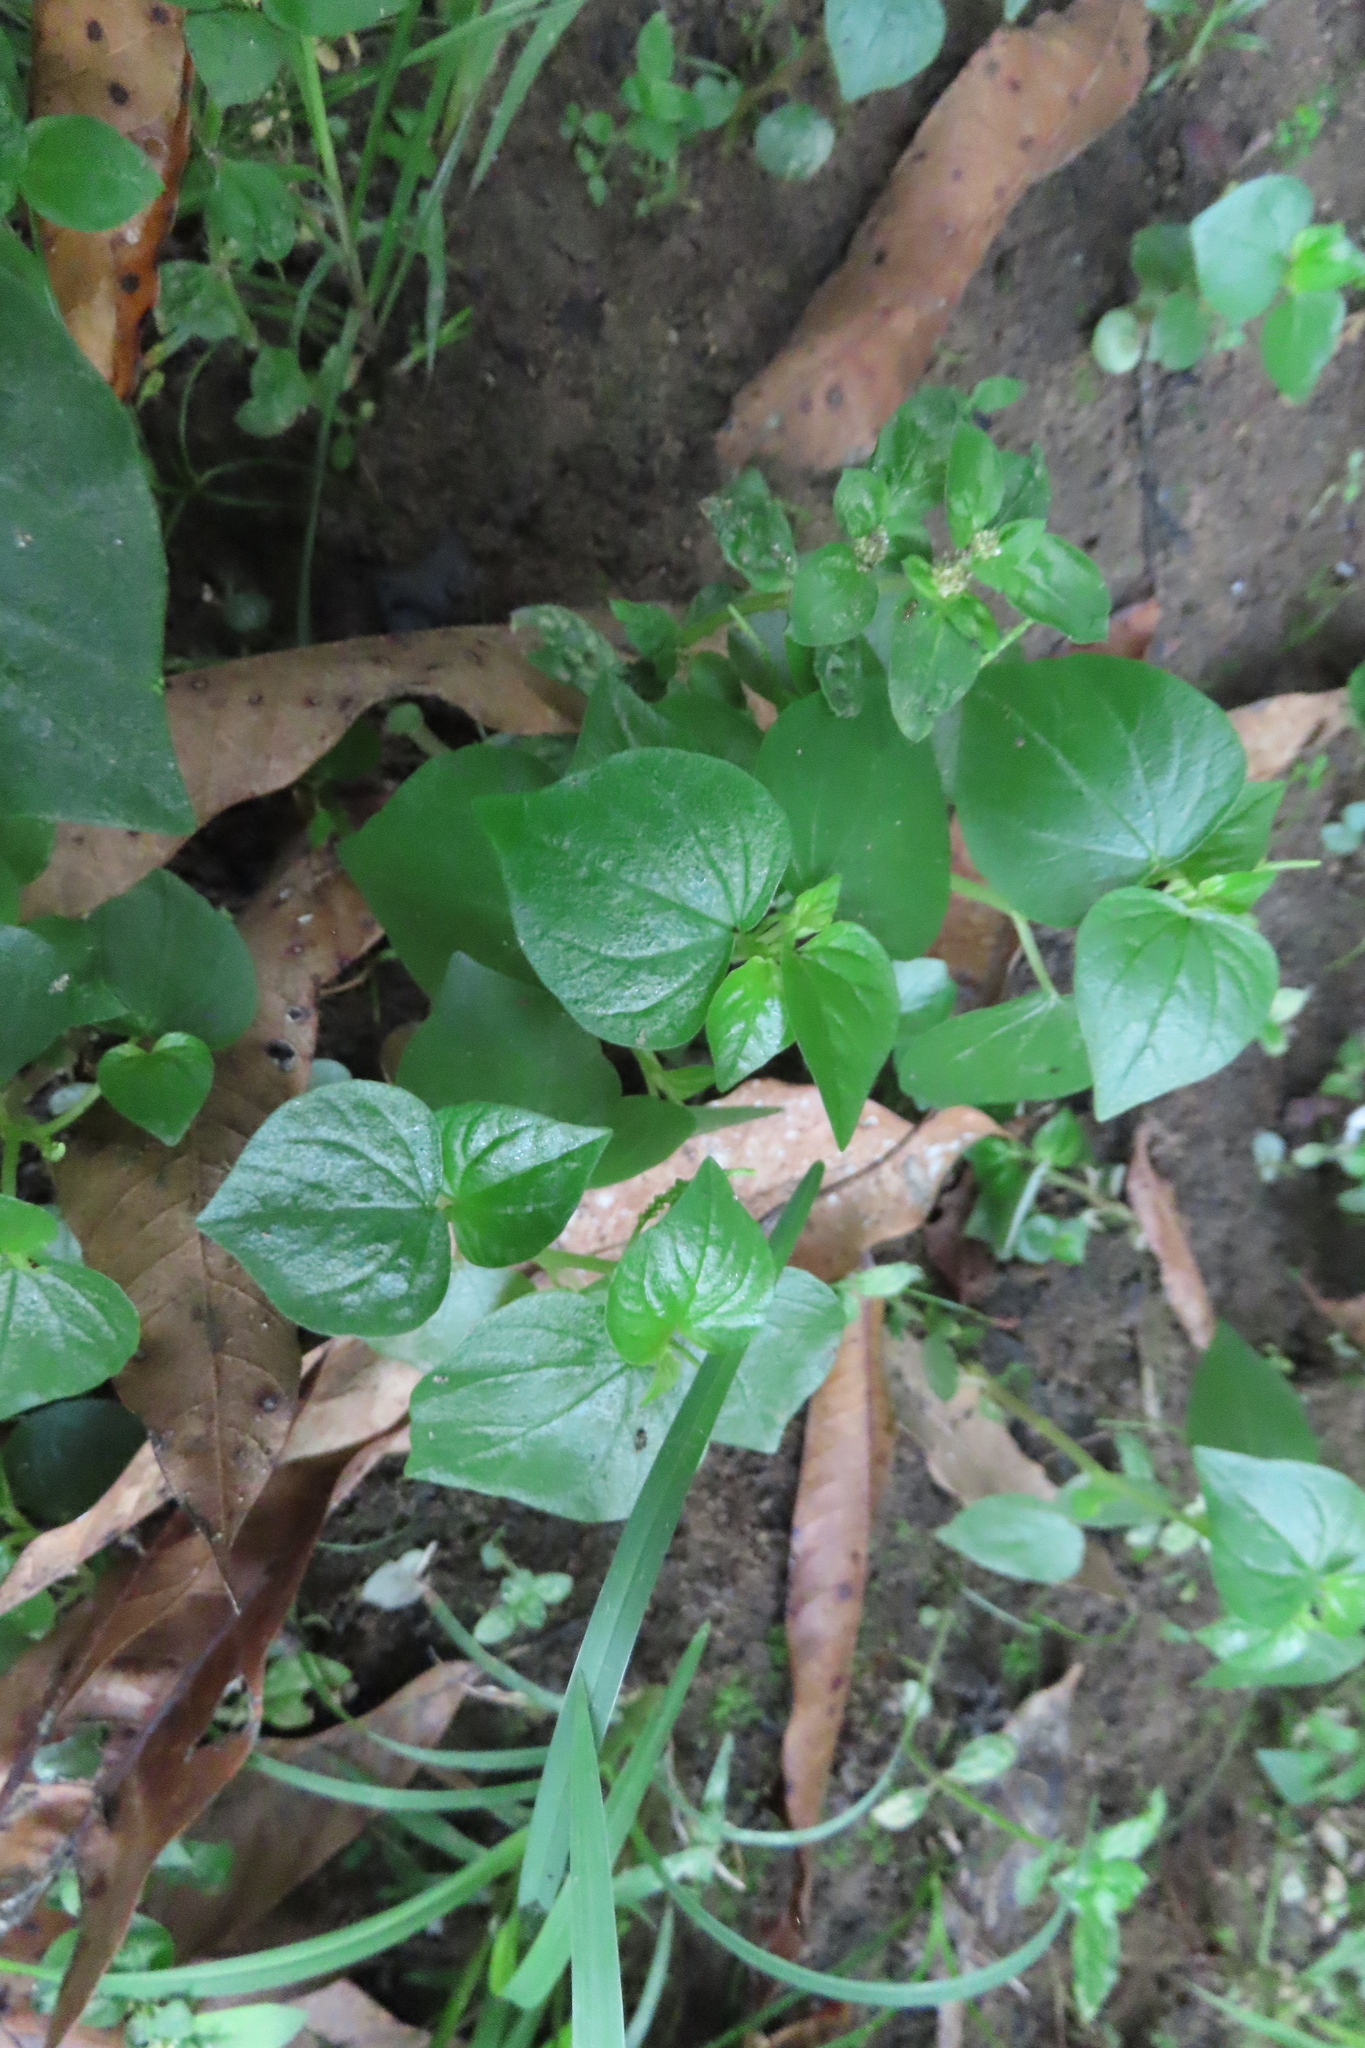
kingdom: Plantae
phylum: Tracheophyta
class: Magnoliopsida
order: Piperales
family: Piperaceae
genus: Peperomia
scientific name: Peperomia pellucida
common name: Man to man
